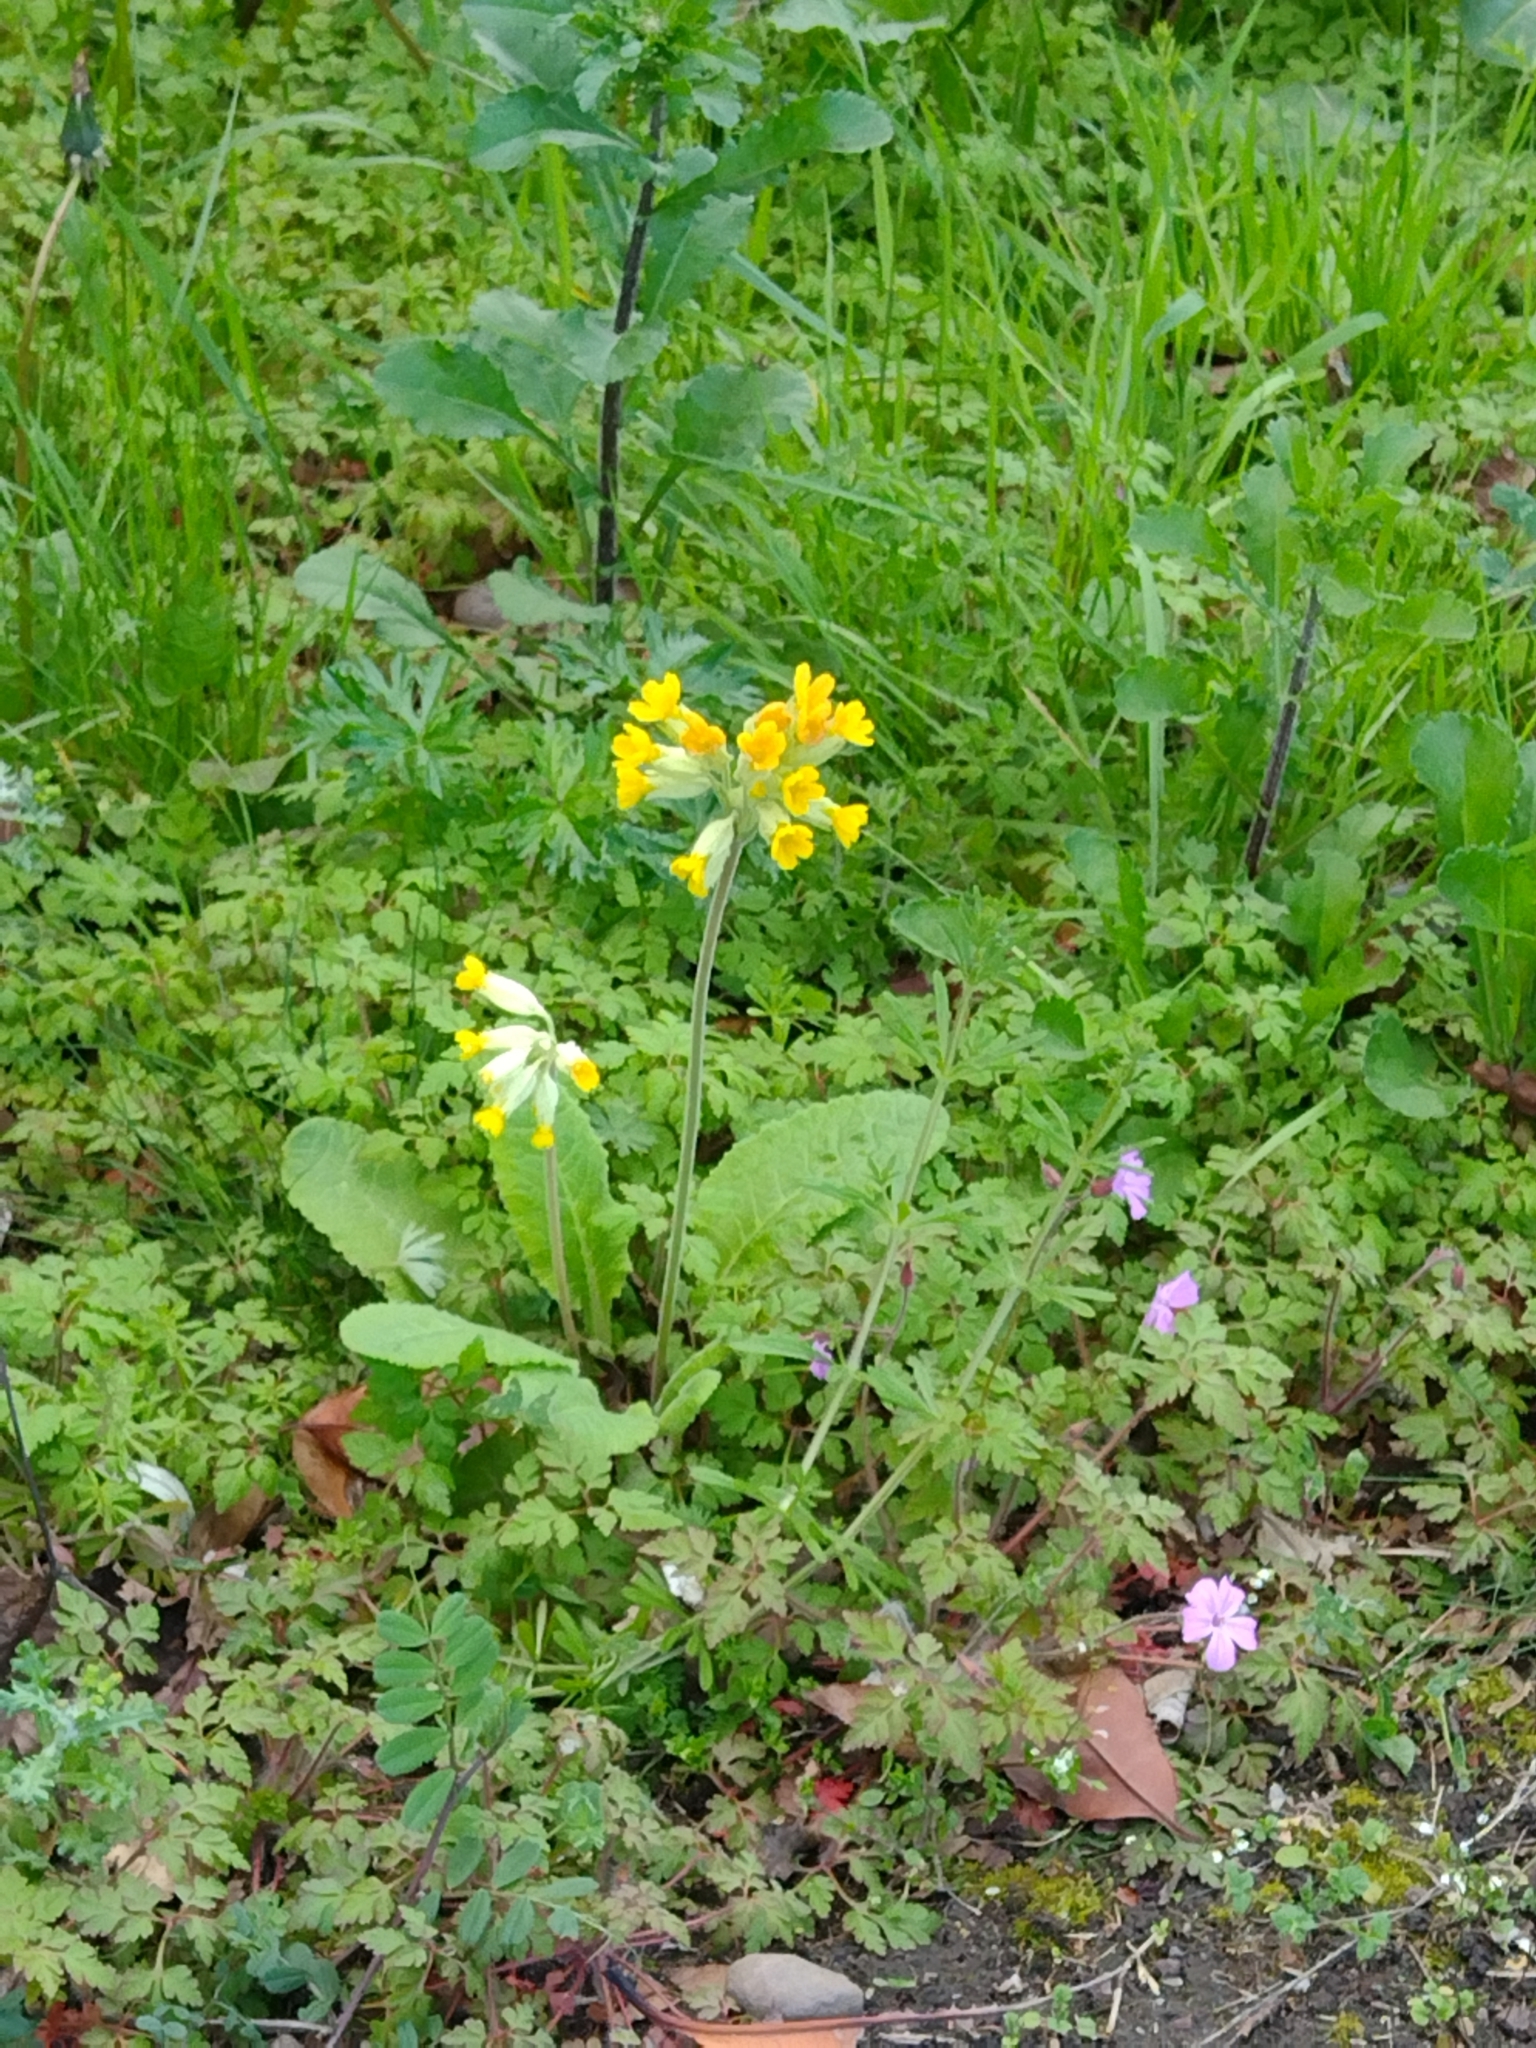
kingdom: Plantae
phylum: Tracheophyta
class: Magnoliopsida
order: Ericales
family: Primulaceae
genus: Primula
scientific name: Primula veris
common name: Cowslip
